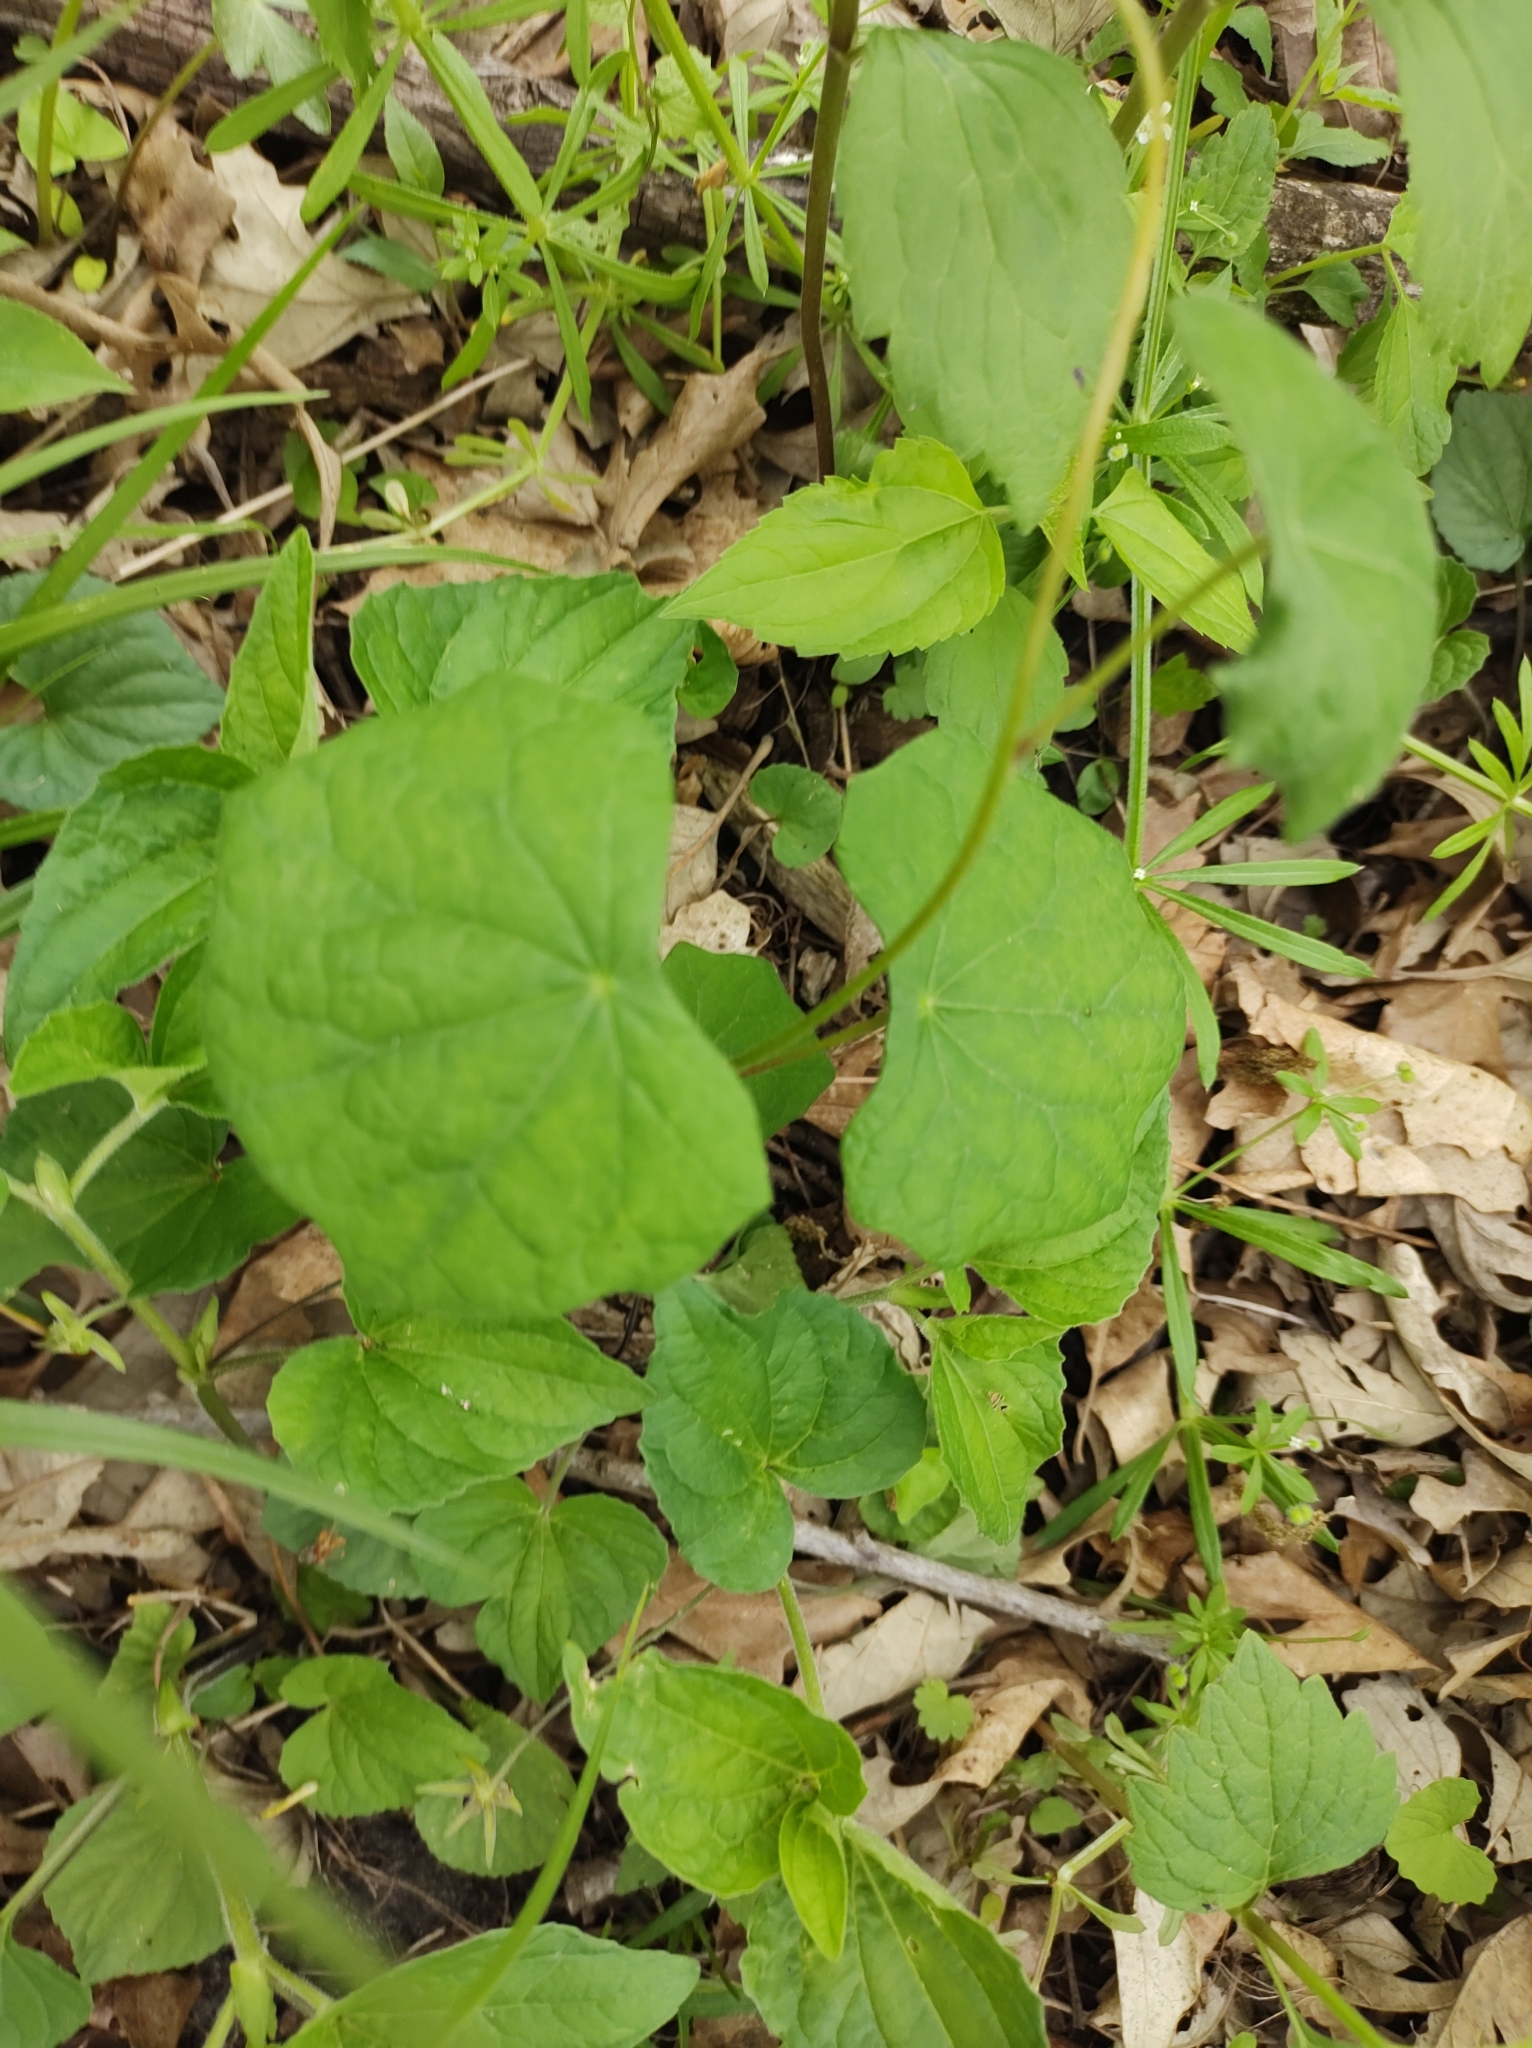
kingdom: Plantae
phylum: Tracheophyta
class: Magnoliopsida
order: Ranunculales
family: Menispermaceae
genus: Menispermum
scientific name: Menispermum canadense
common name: Moonseed
